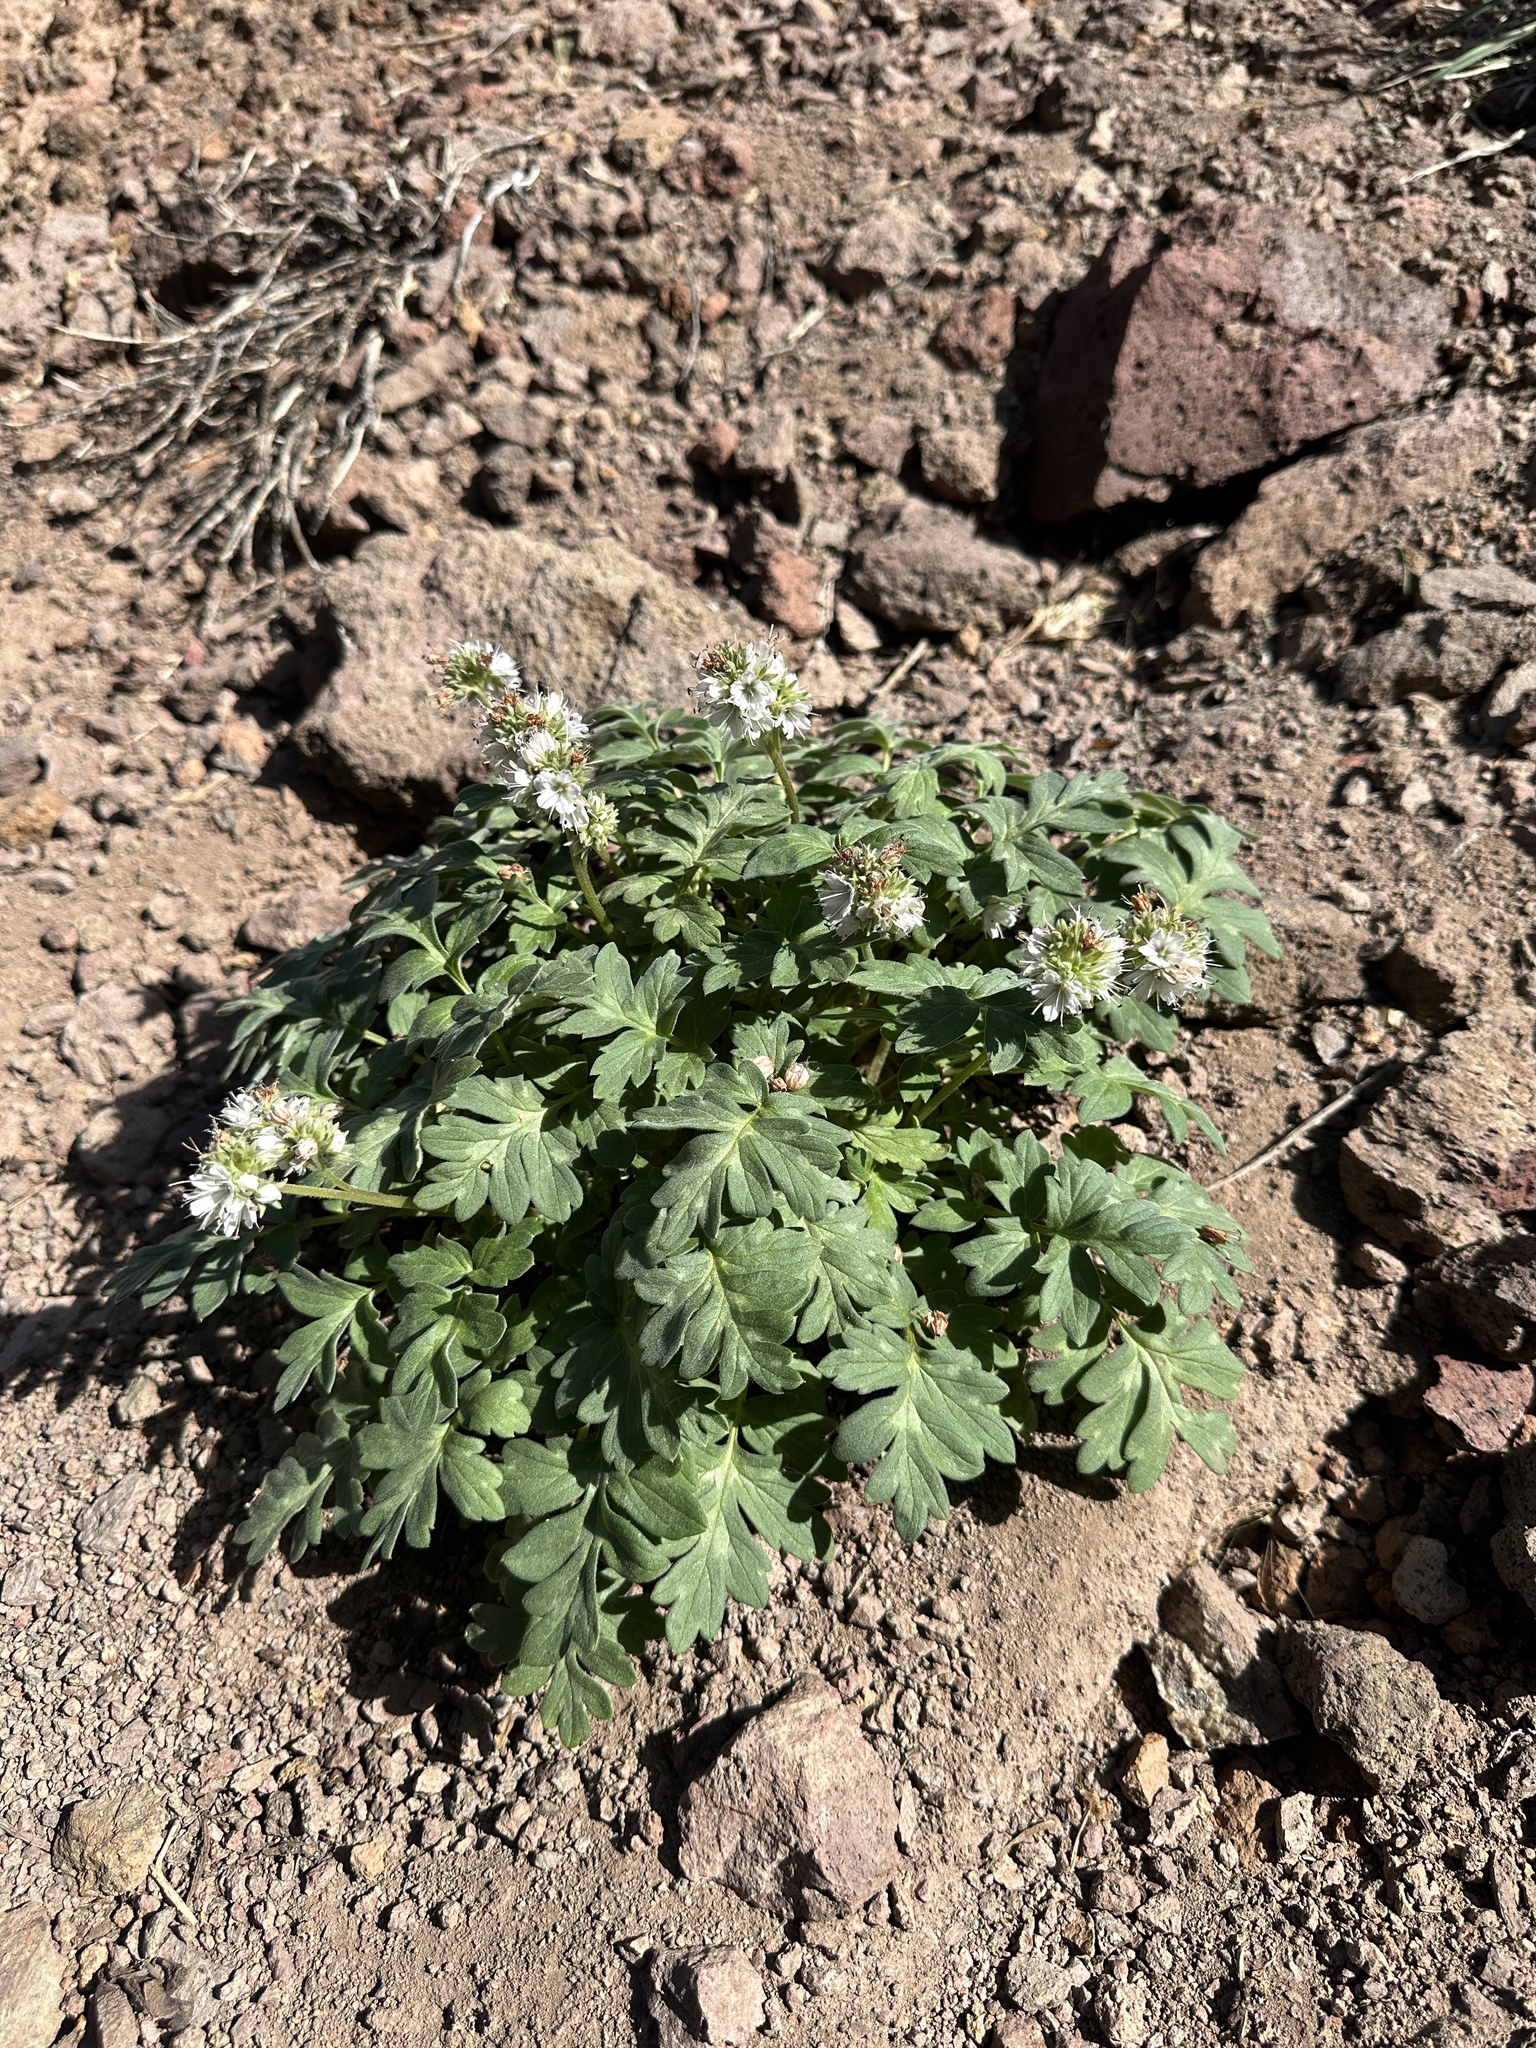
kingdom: Plantae
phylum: Tracheophyta
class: Magnoliopsida
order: Boraginales
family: Hydrophyllaceae
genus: Hydrophyllum
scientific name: Hydrophyllum occidentale
